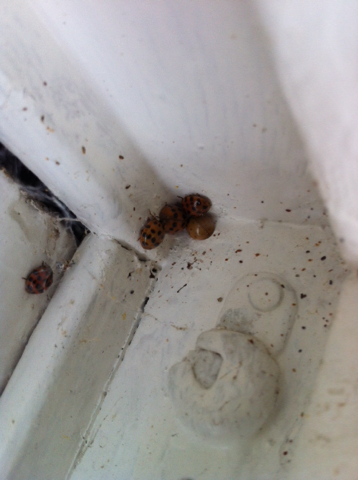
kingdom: Animalia
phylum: Arthropoda
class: Insecta
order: Coleoptera
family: Coccinellidae
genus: Harmonia
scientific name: Harmonia axyridis
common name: Harlequin ladybird
